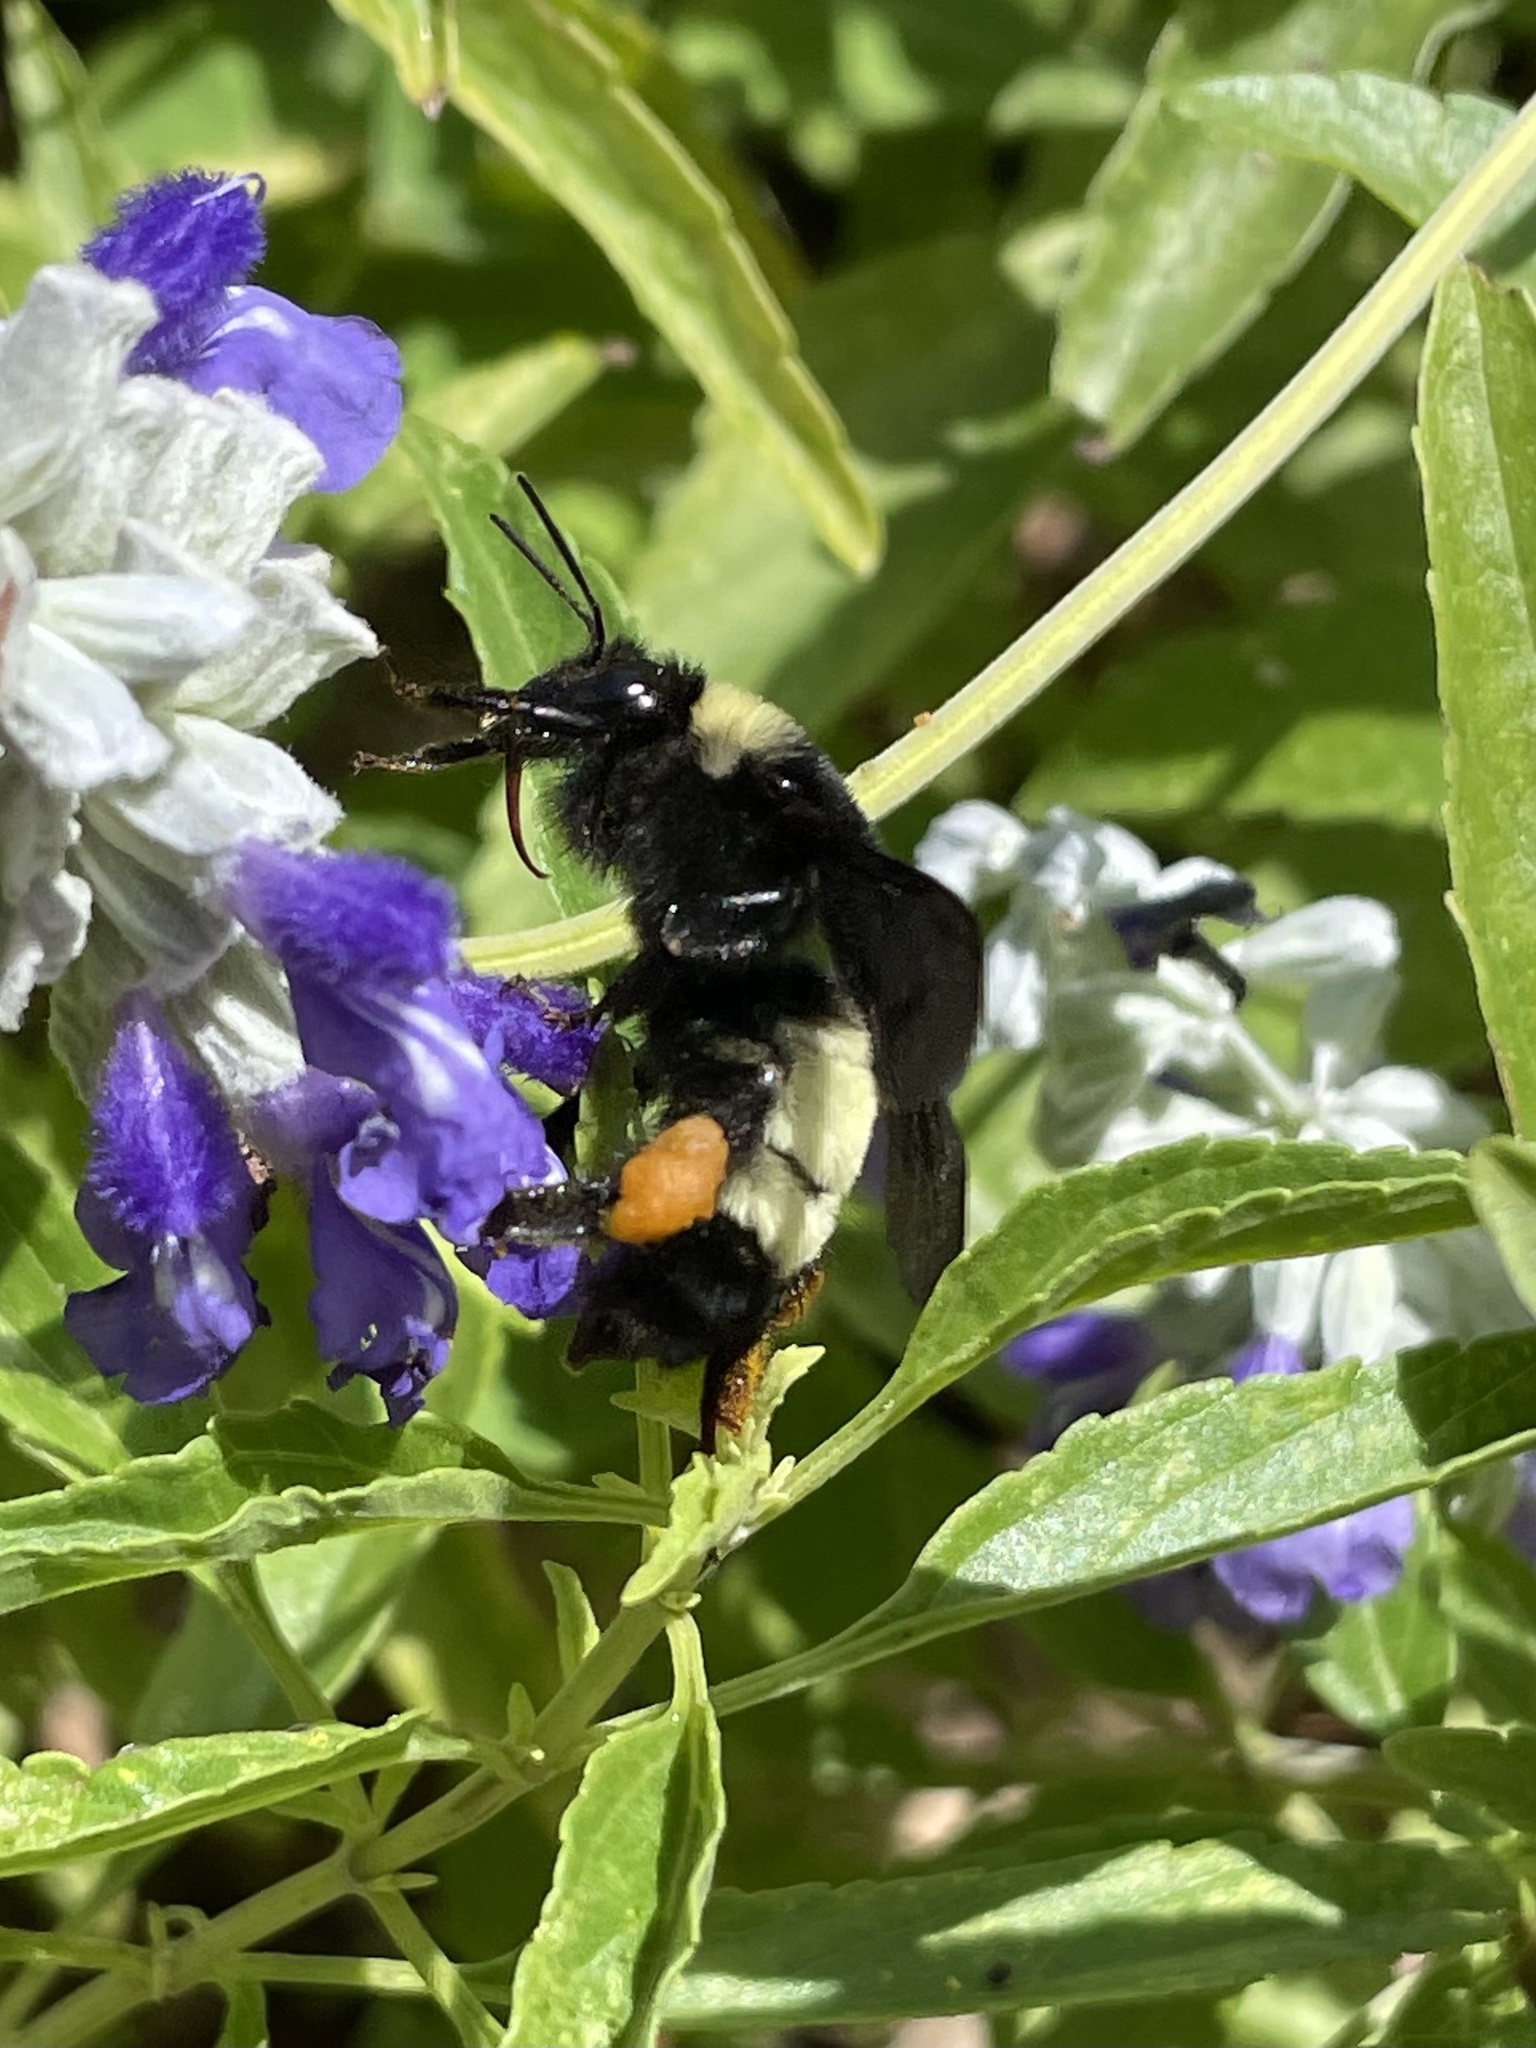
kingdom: Animalia
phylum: Arthropoda
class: Insecta
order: Hymenoptera
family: Apidae
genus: Bombus
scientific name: Bombus pensylvanicus
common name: Bumble bee
